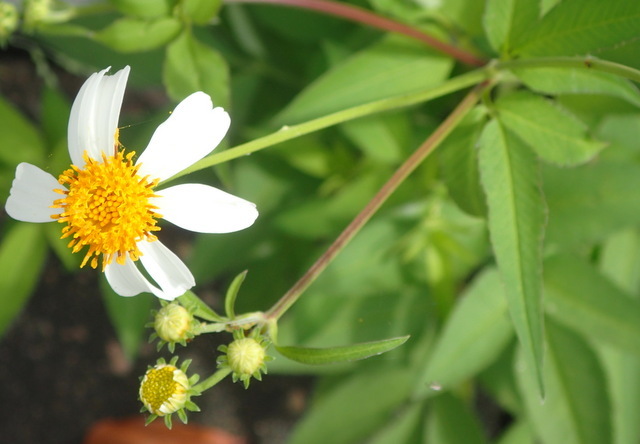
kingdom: Plantae
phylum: Tracheophyta
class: Magnoliopsida
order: Asterales
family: Asteraceae
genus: Bidens
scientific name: Bidens alba
